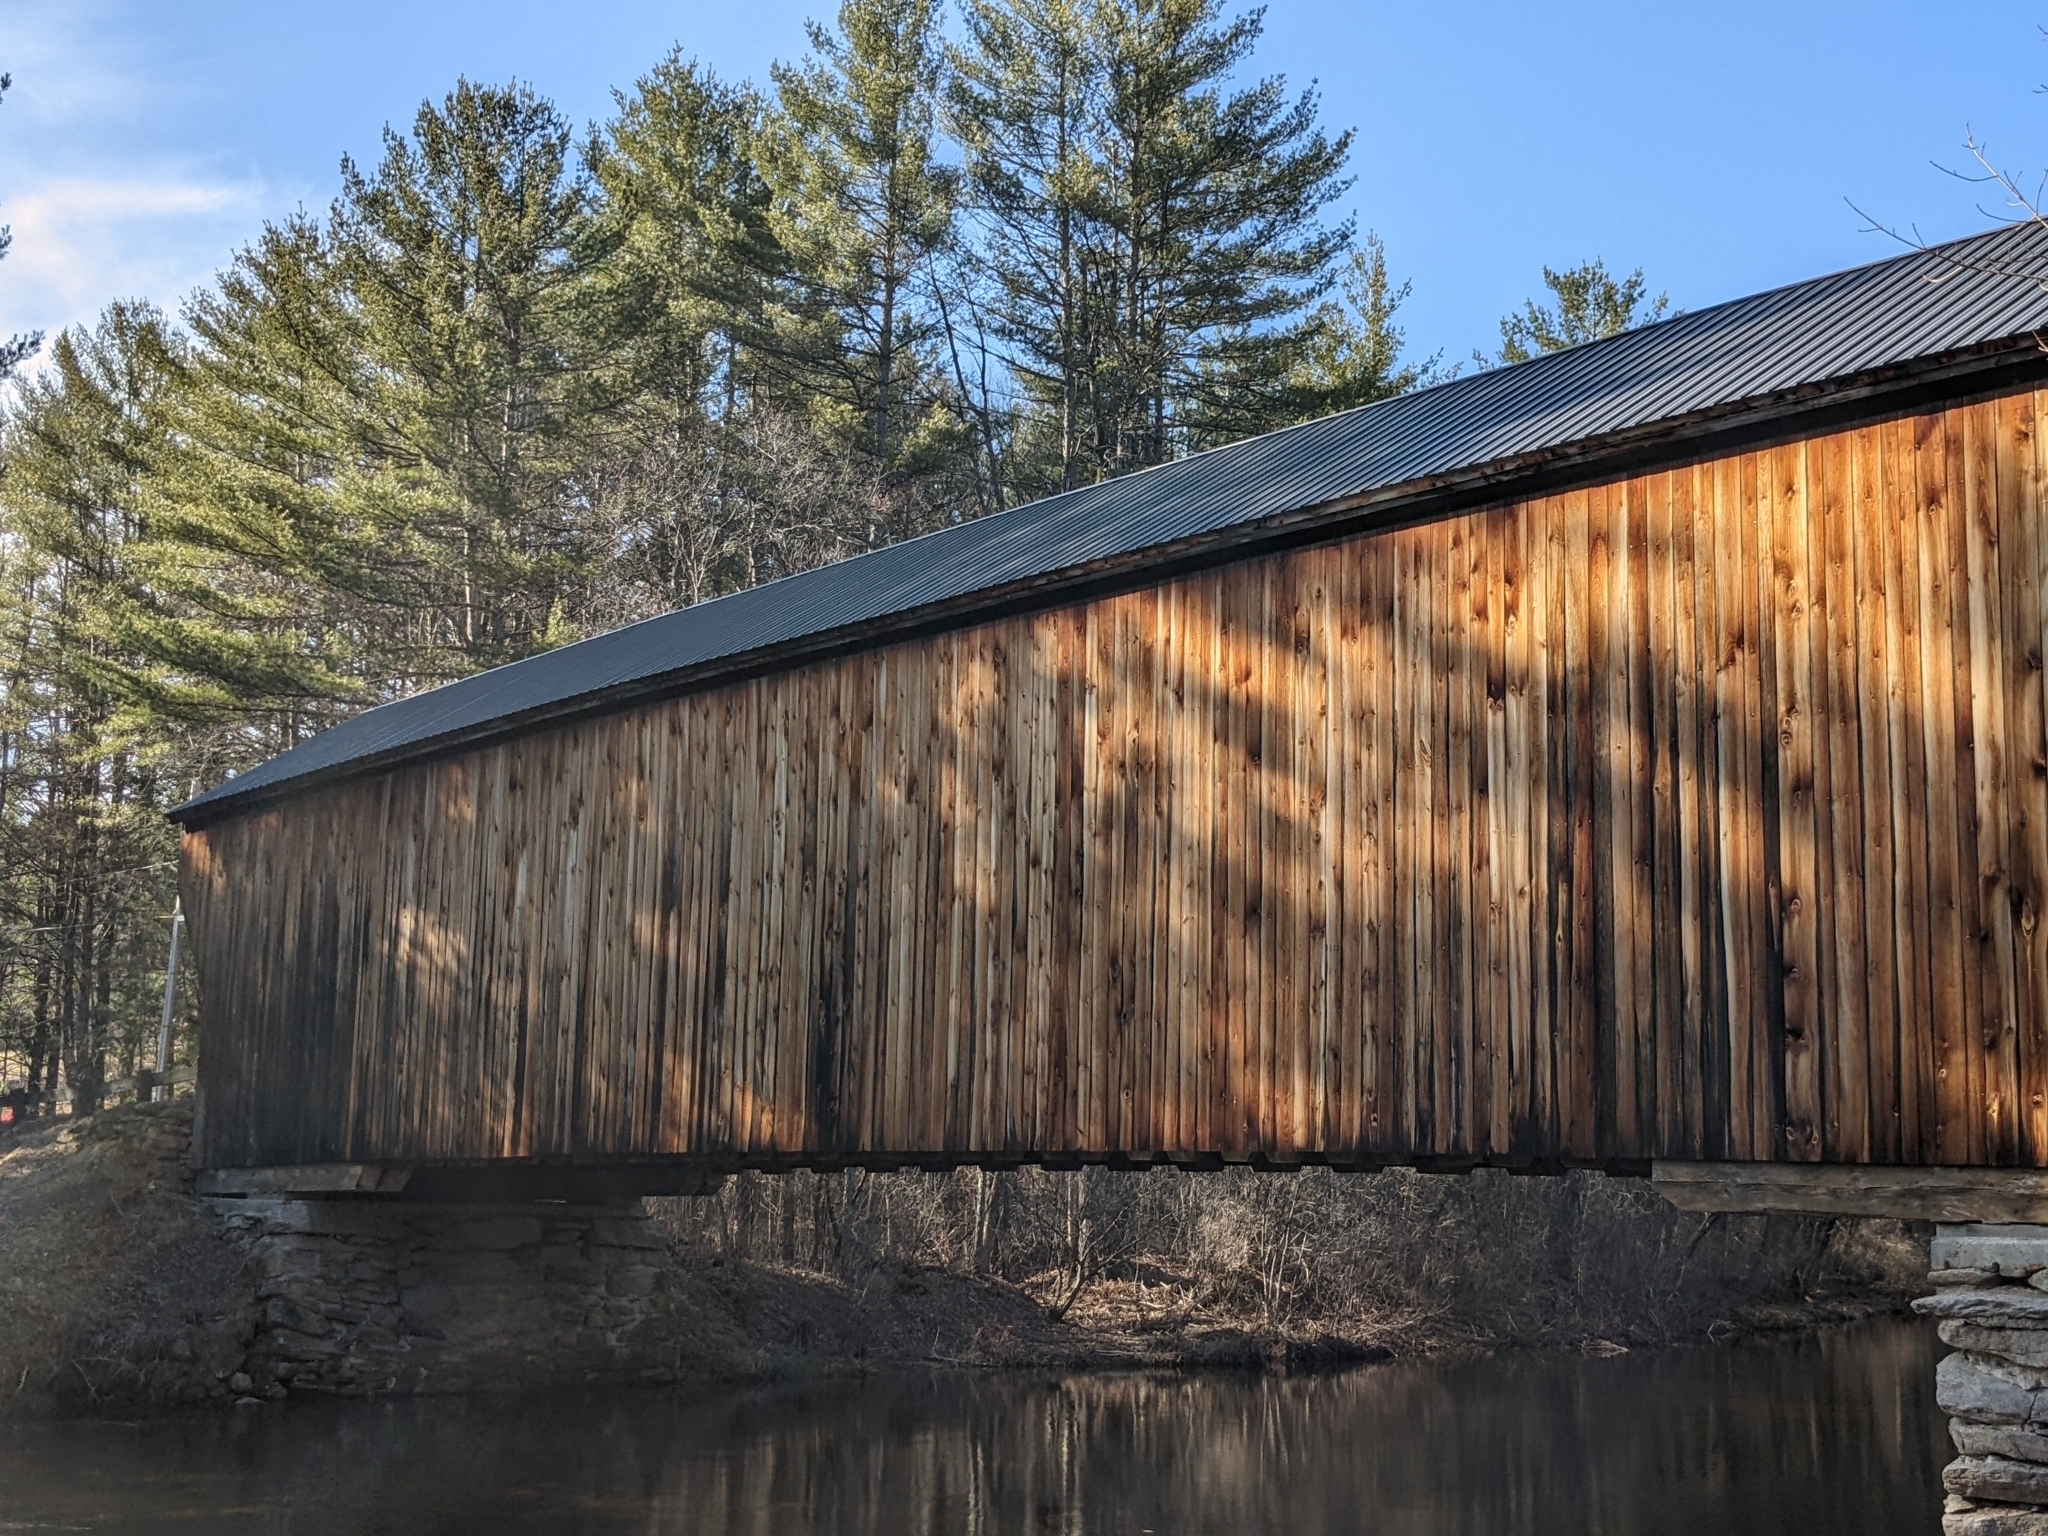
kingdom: Plantae
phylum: Tracheophyta
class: Pinopsida
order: Pinales
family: Pinaceae
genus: Pinus
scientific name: Pinus strobus
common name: Weymouth pine
